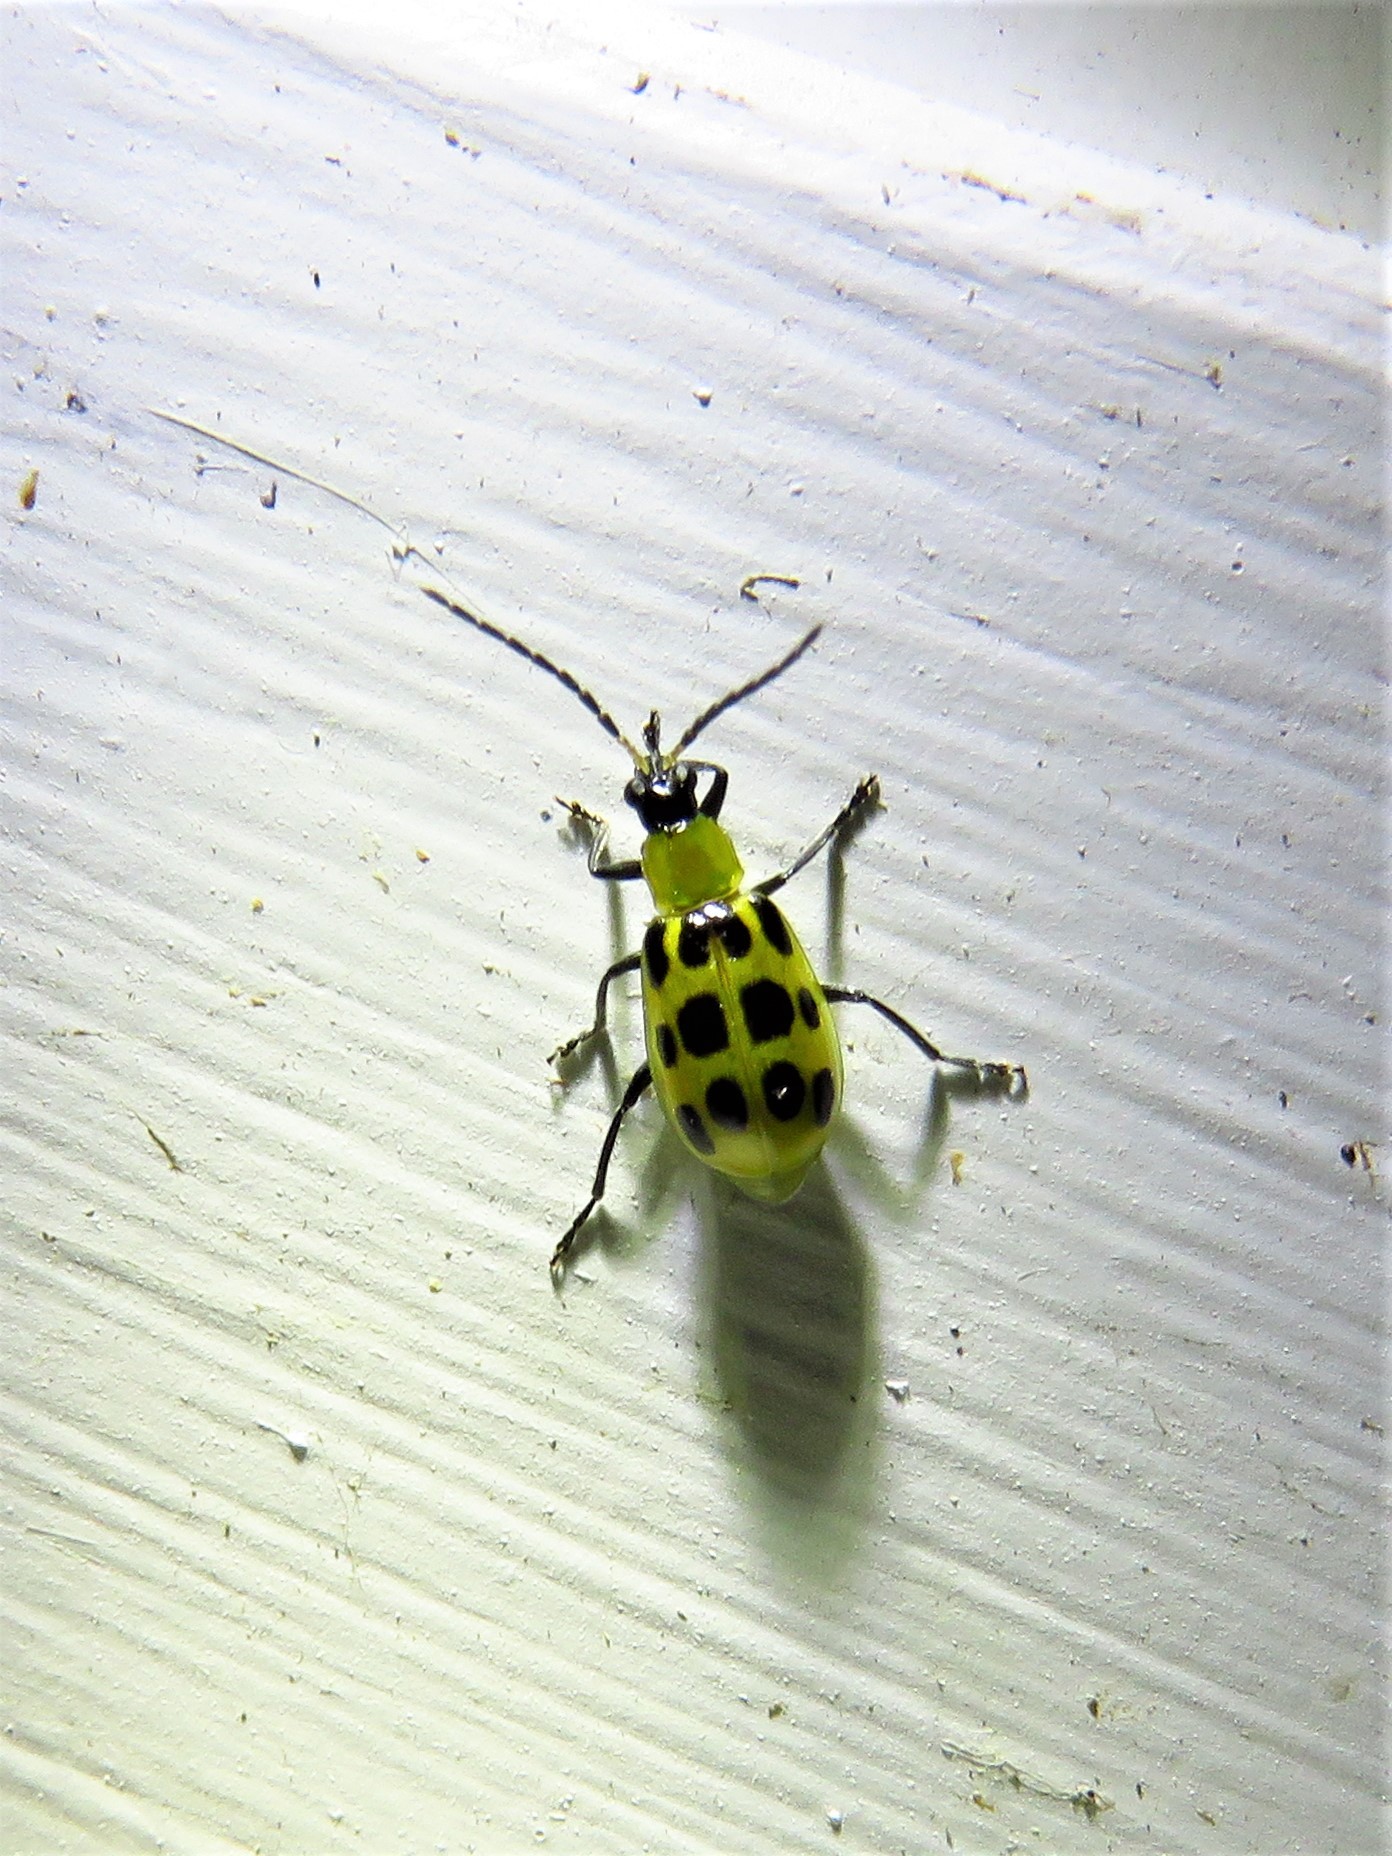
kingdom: Animalia
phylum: Arthropoda
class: Insecta
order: Coleoptera
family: Chrysomelidae
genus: Diabrotica
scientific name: Diabrotica undecimpunctata
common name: Spotted cucumber beetle
